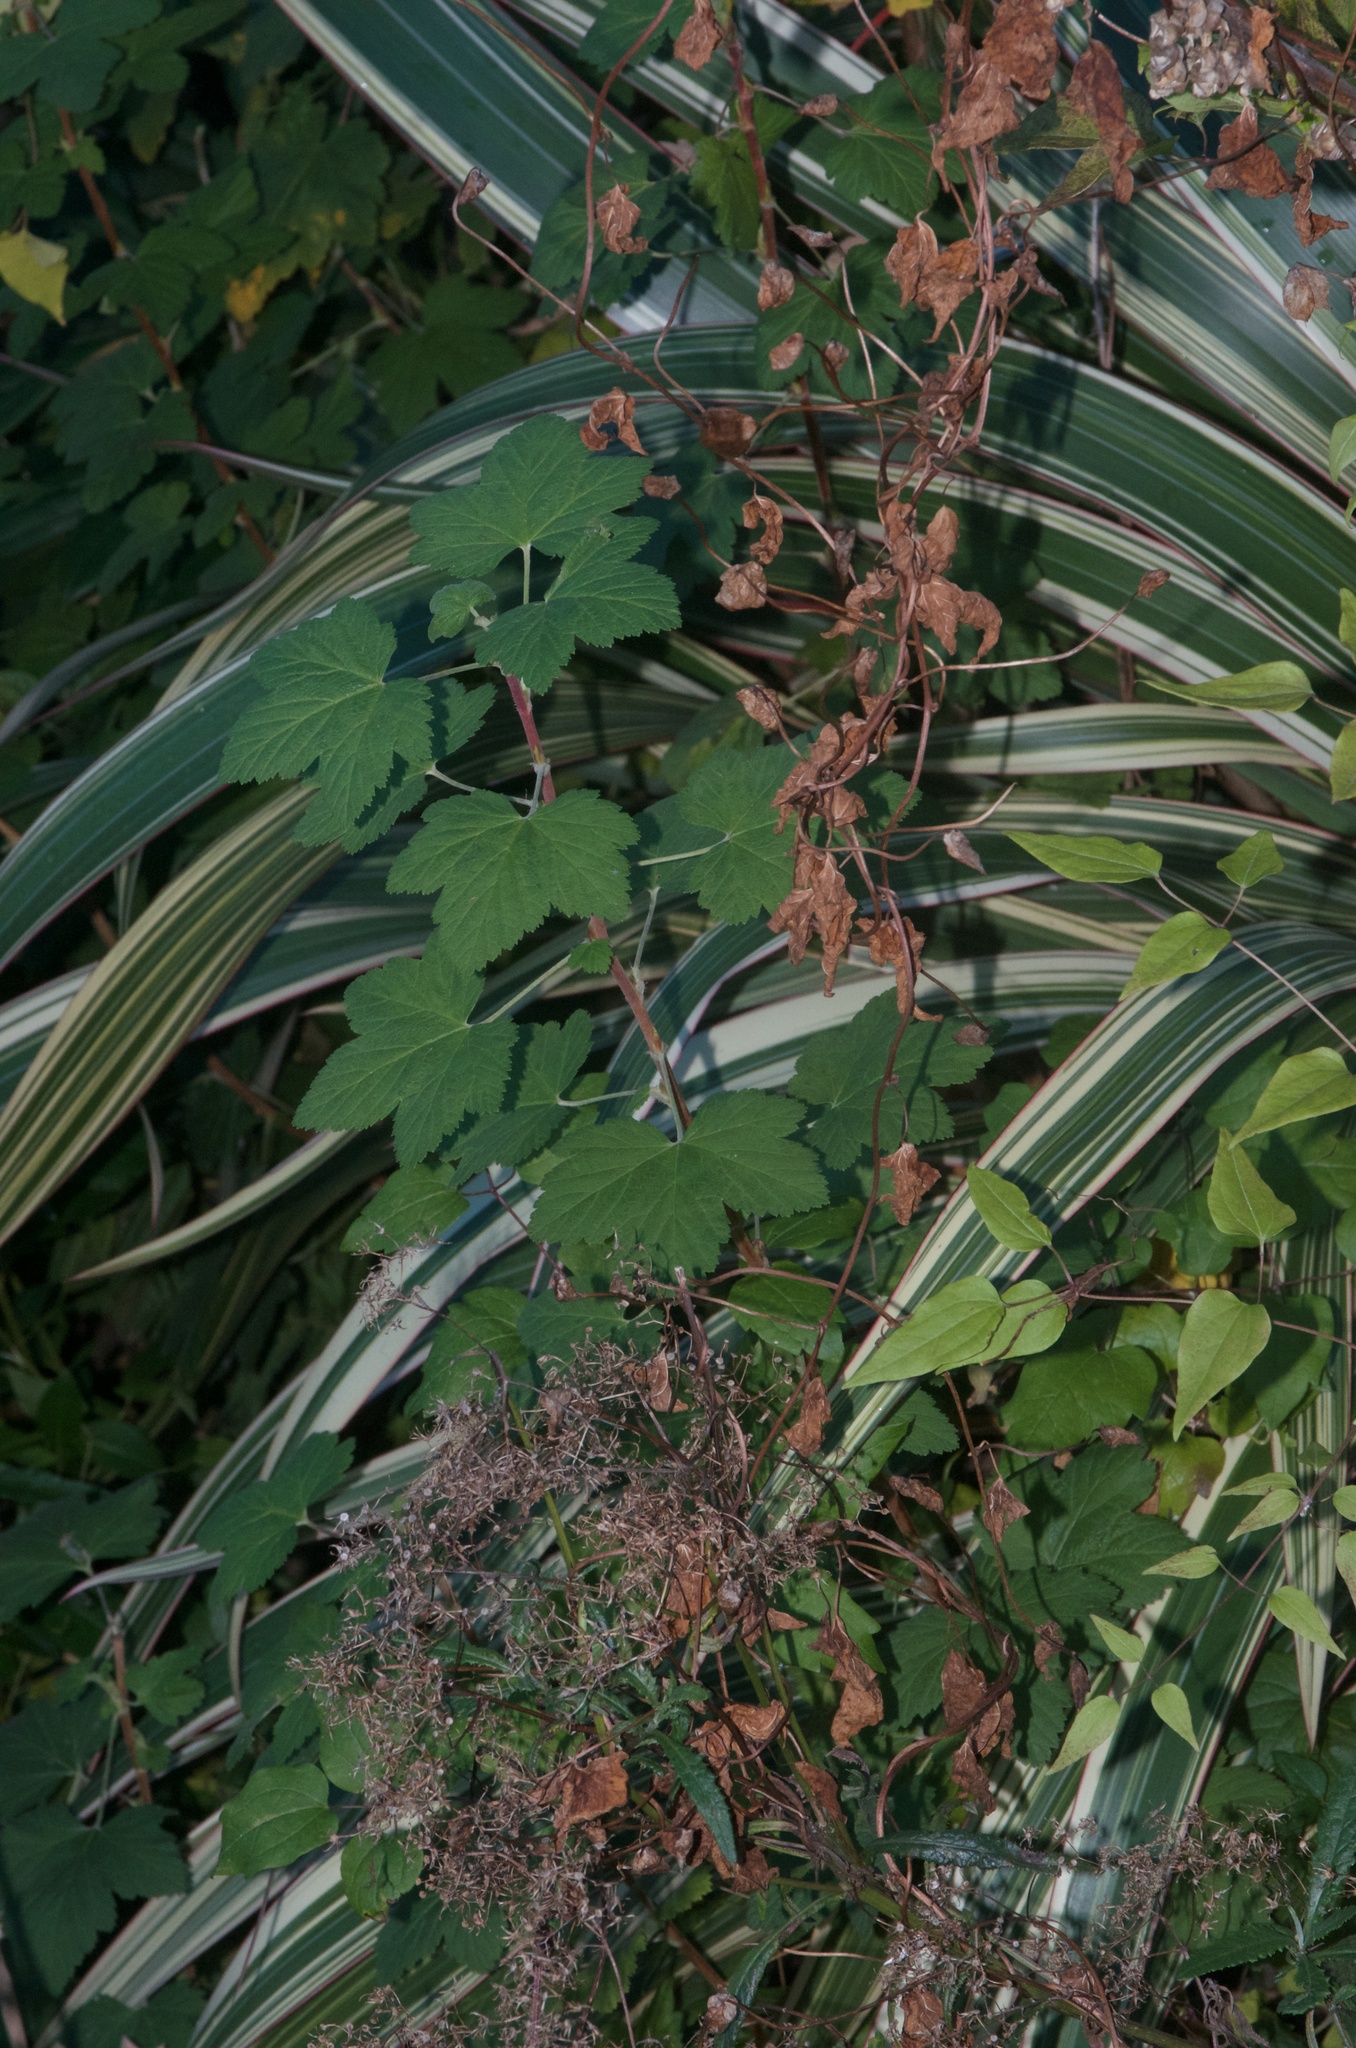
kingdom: Plantae
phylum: Tracheophyta
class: Magnoliopsida
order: Saxifragales
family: Grossulariaceae
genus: Ribes
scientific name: Ribes sanguineum
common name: Flowering currant
